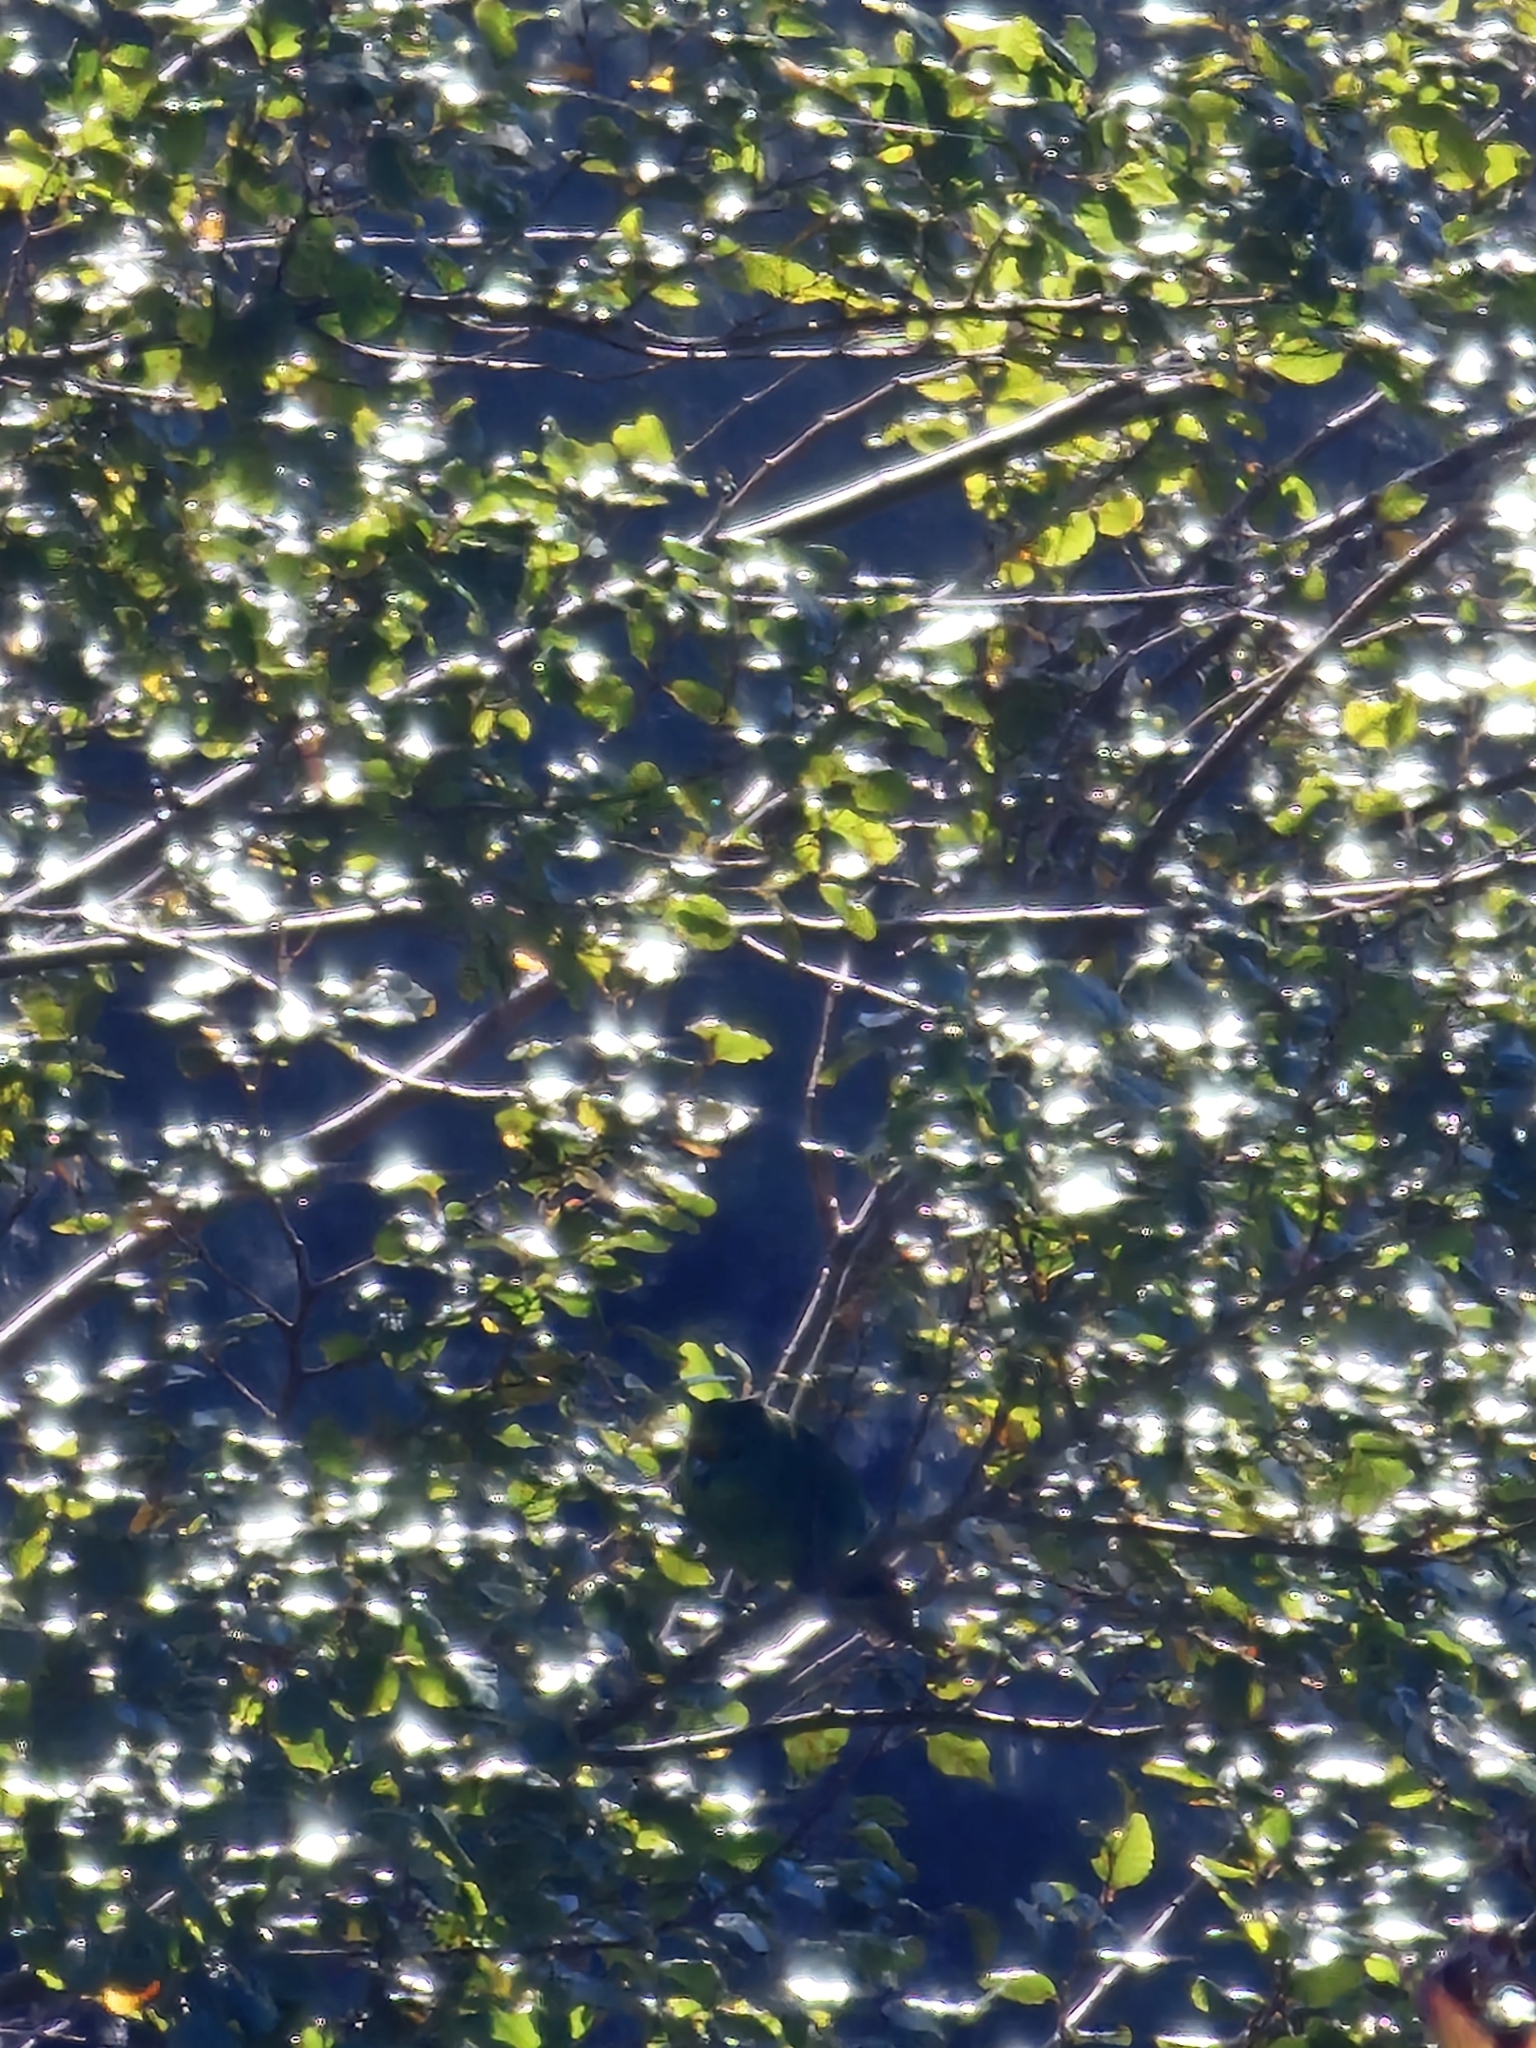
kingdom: Animalia
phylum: Chordata
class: Aves
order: Psittaciformes
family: Psittacidae
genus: Cyanoramphus
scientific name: Cyanoramphus malherbi
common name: Malherbe's parakeet
